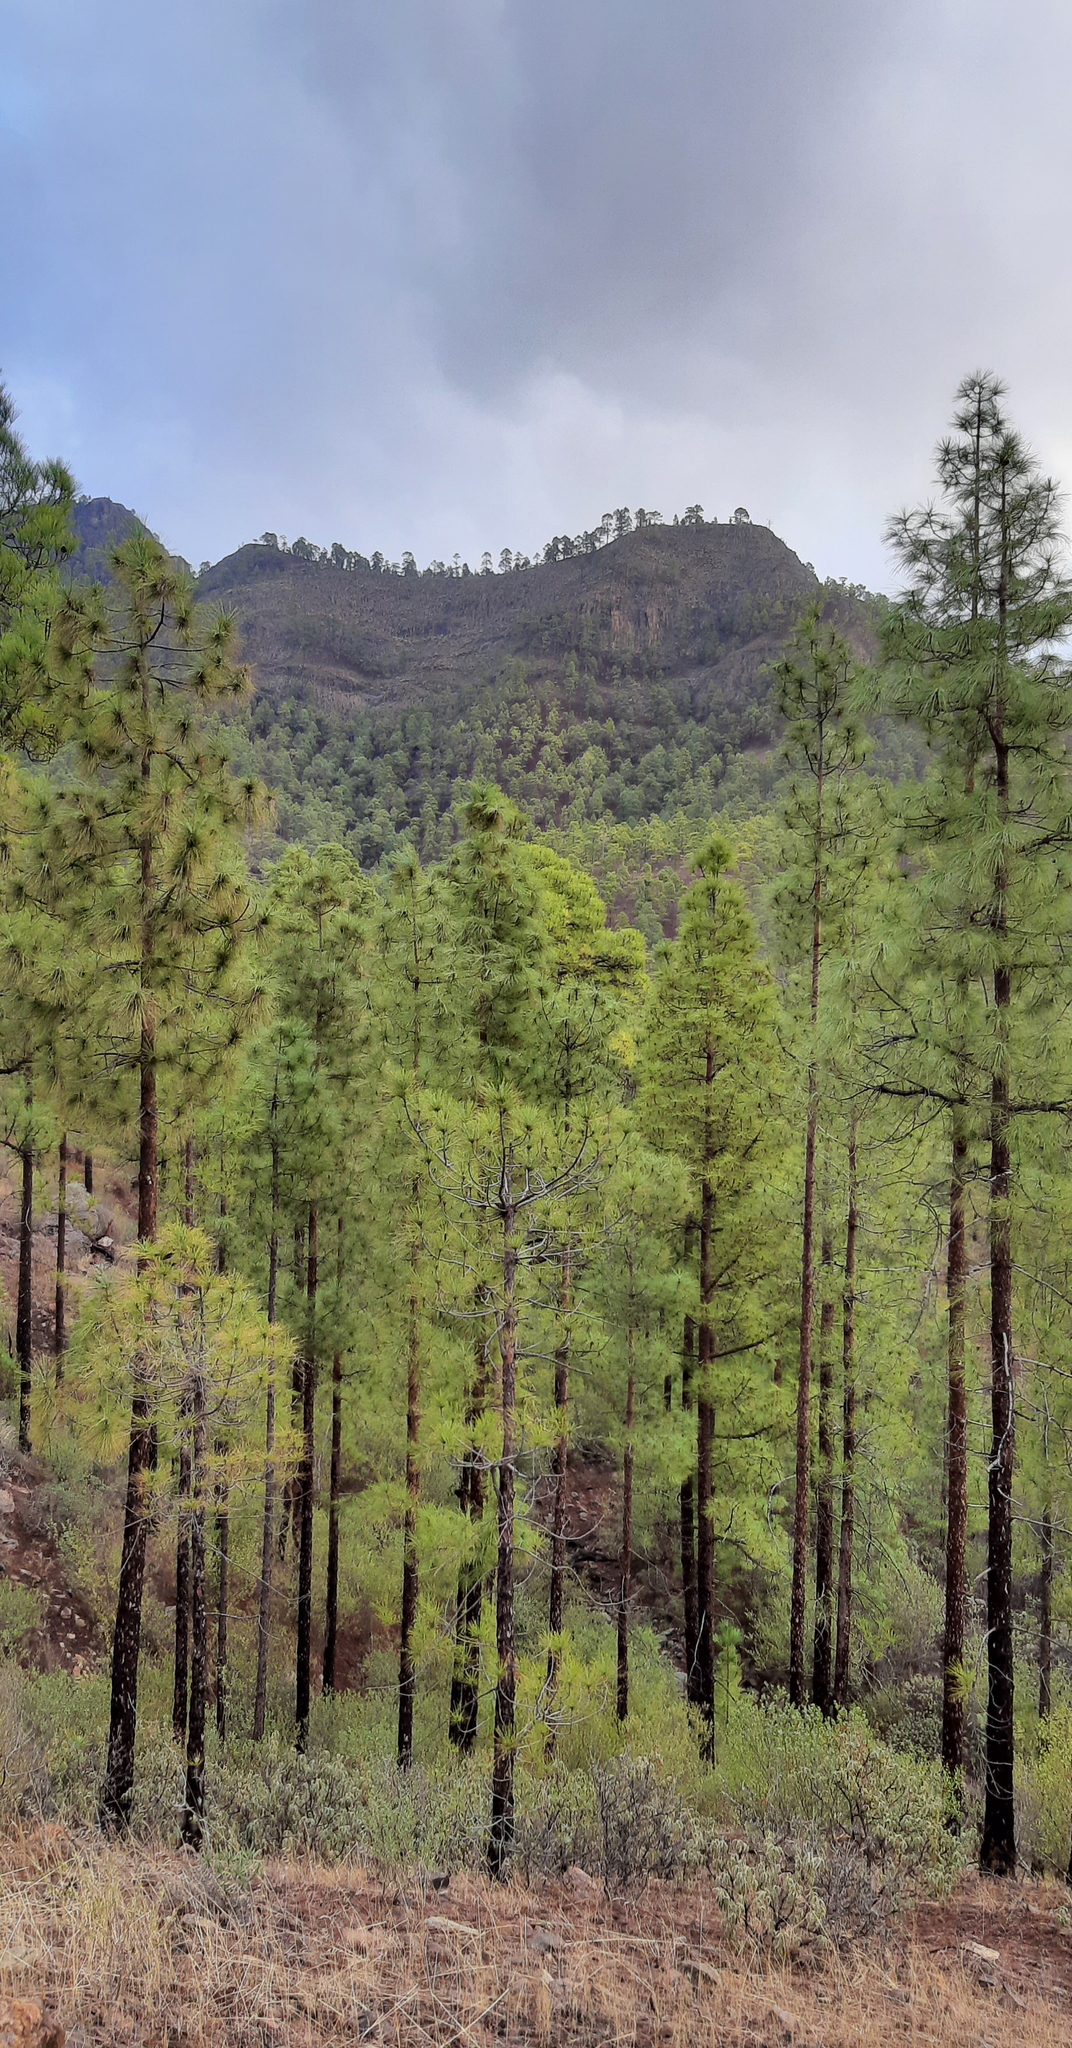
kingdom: Plantae
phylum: Tracheophyta
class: Pinopsida
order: Pinales
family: Pinaceae
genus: Pinus
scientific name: Pinus canariensis
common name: Canary islands pine
